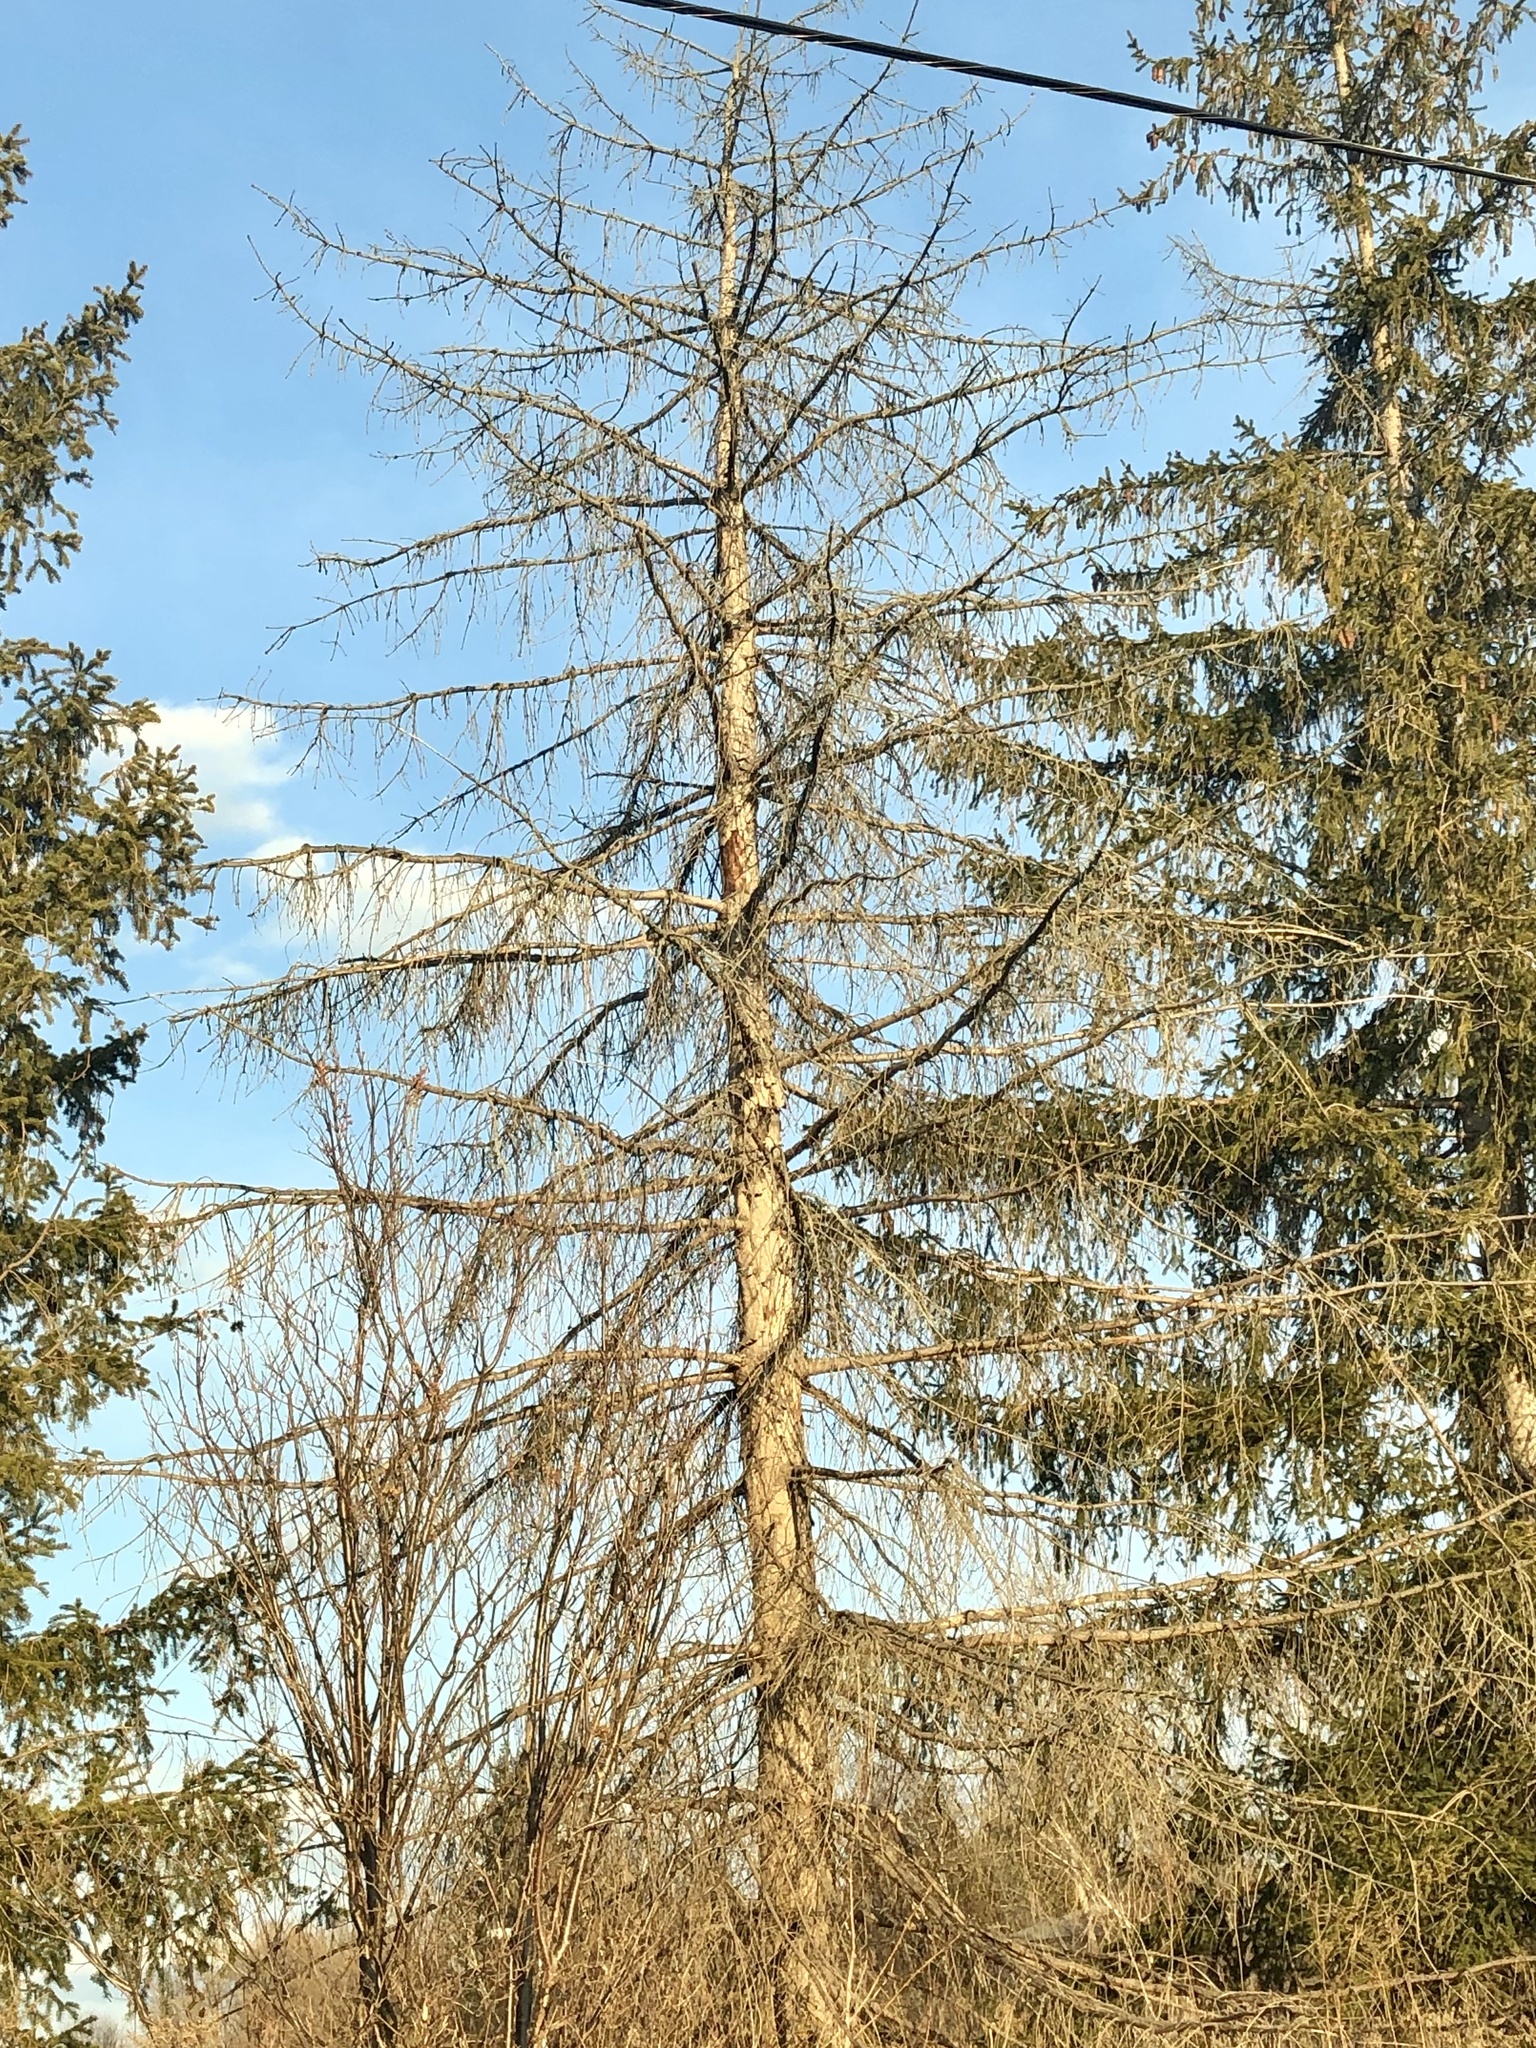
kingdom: Plantae
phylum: Tracheophyta
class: Pinopsida
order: Pinales
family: Pinaceae
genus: Picea
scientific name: Picea abies
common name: Norway spruce
